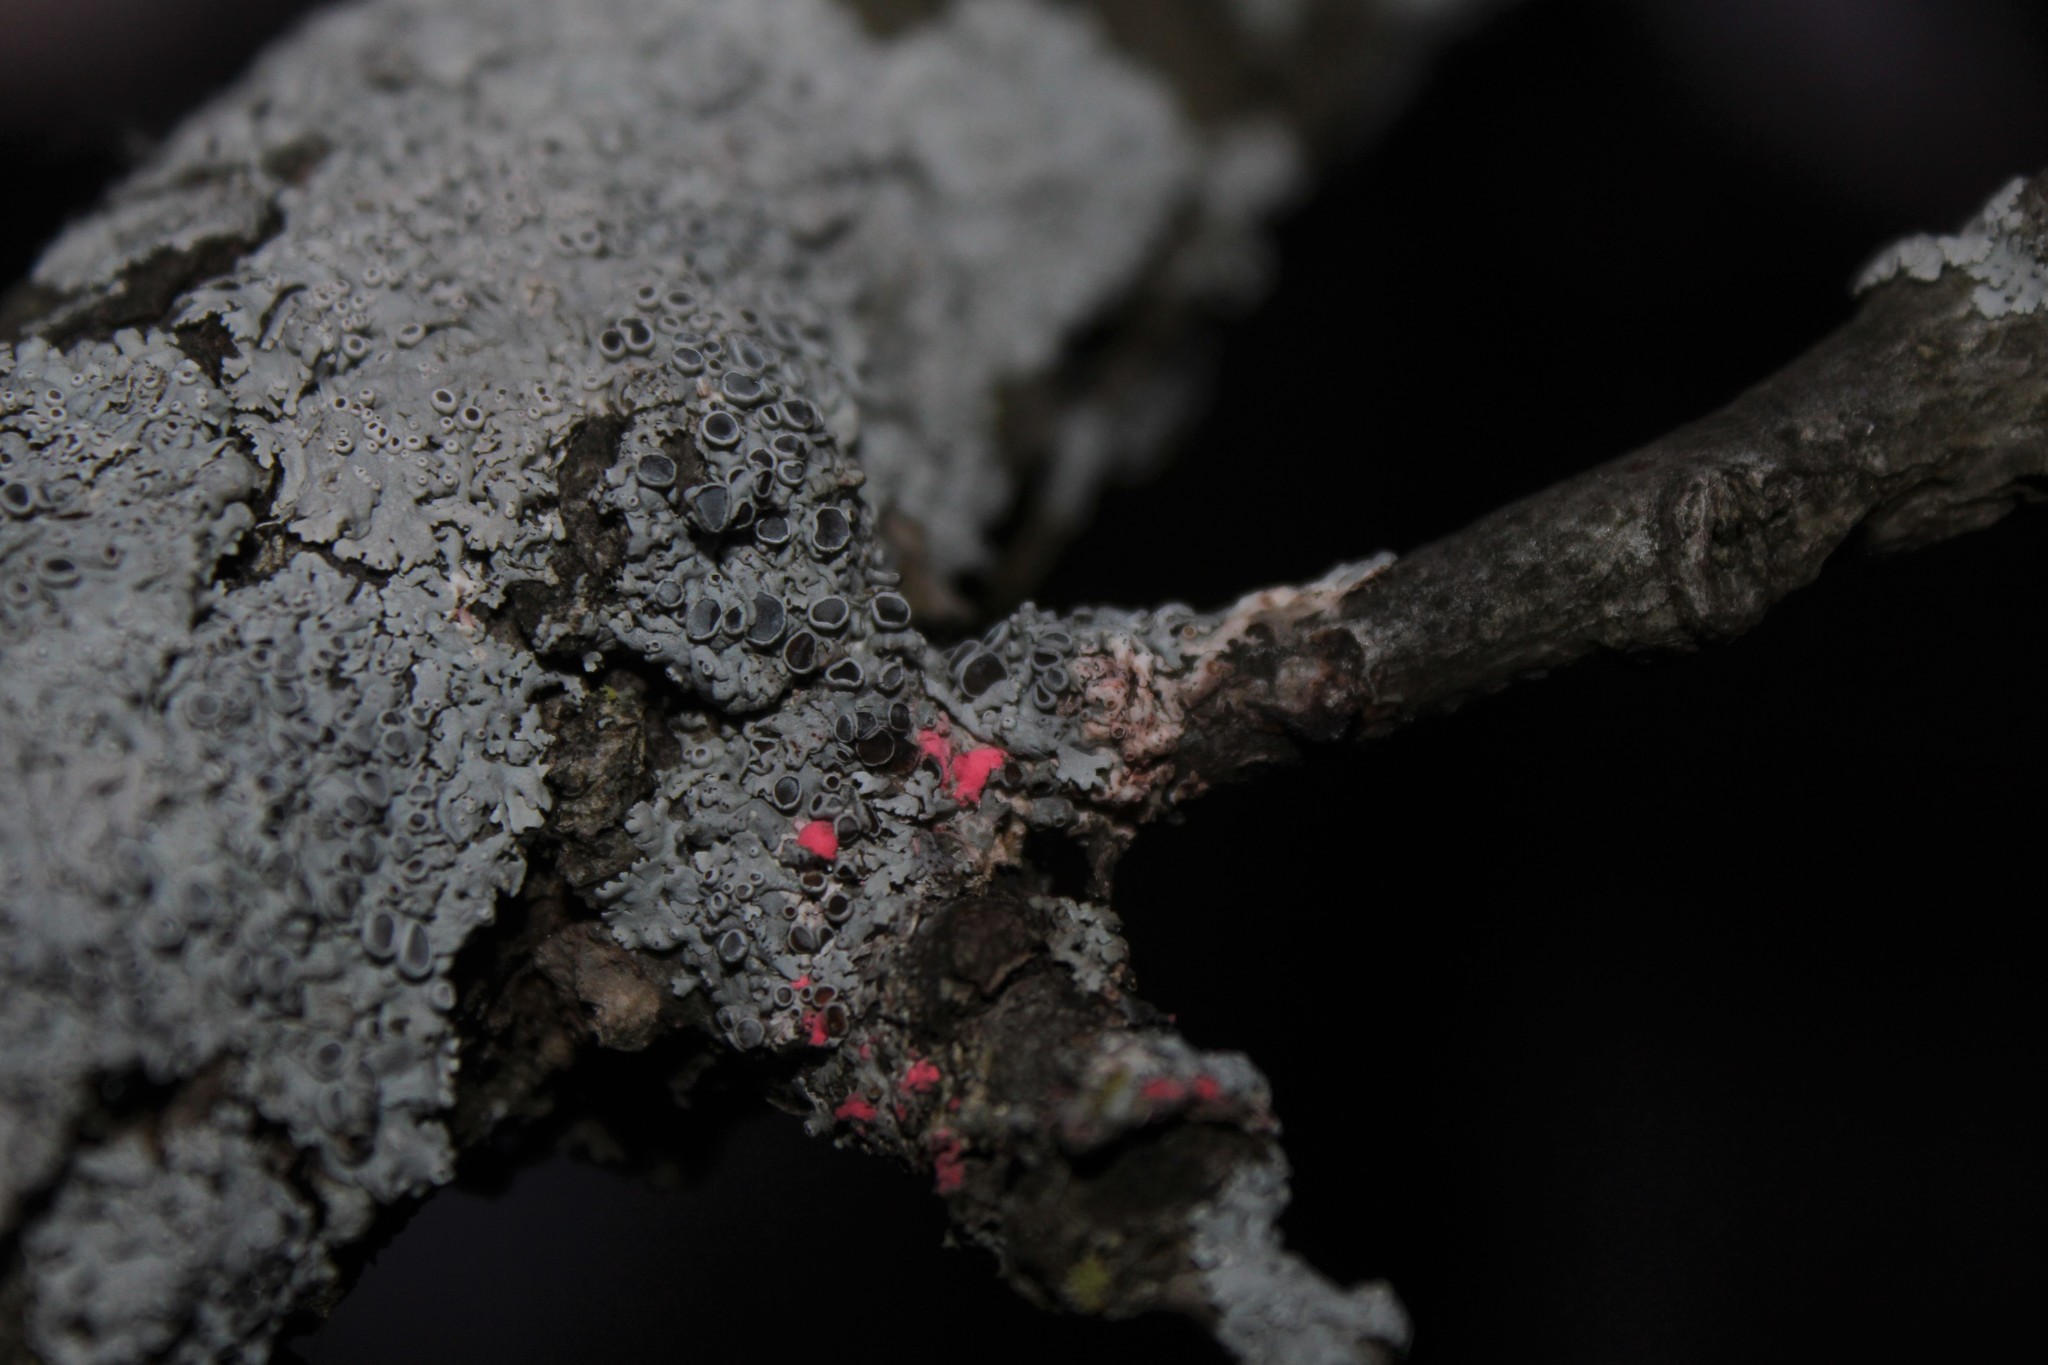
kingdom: Fungi
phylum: Ascomycota
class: Sordariomycetes
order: Hypocreales
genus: Illosporiopsis
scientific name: Illosporiopsis christiansenii
